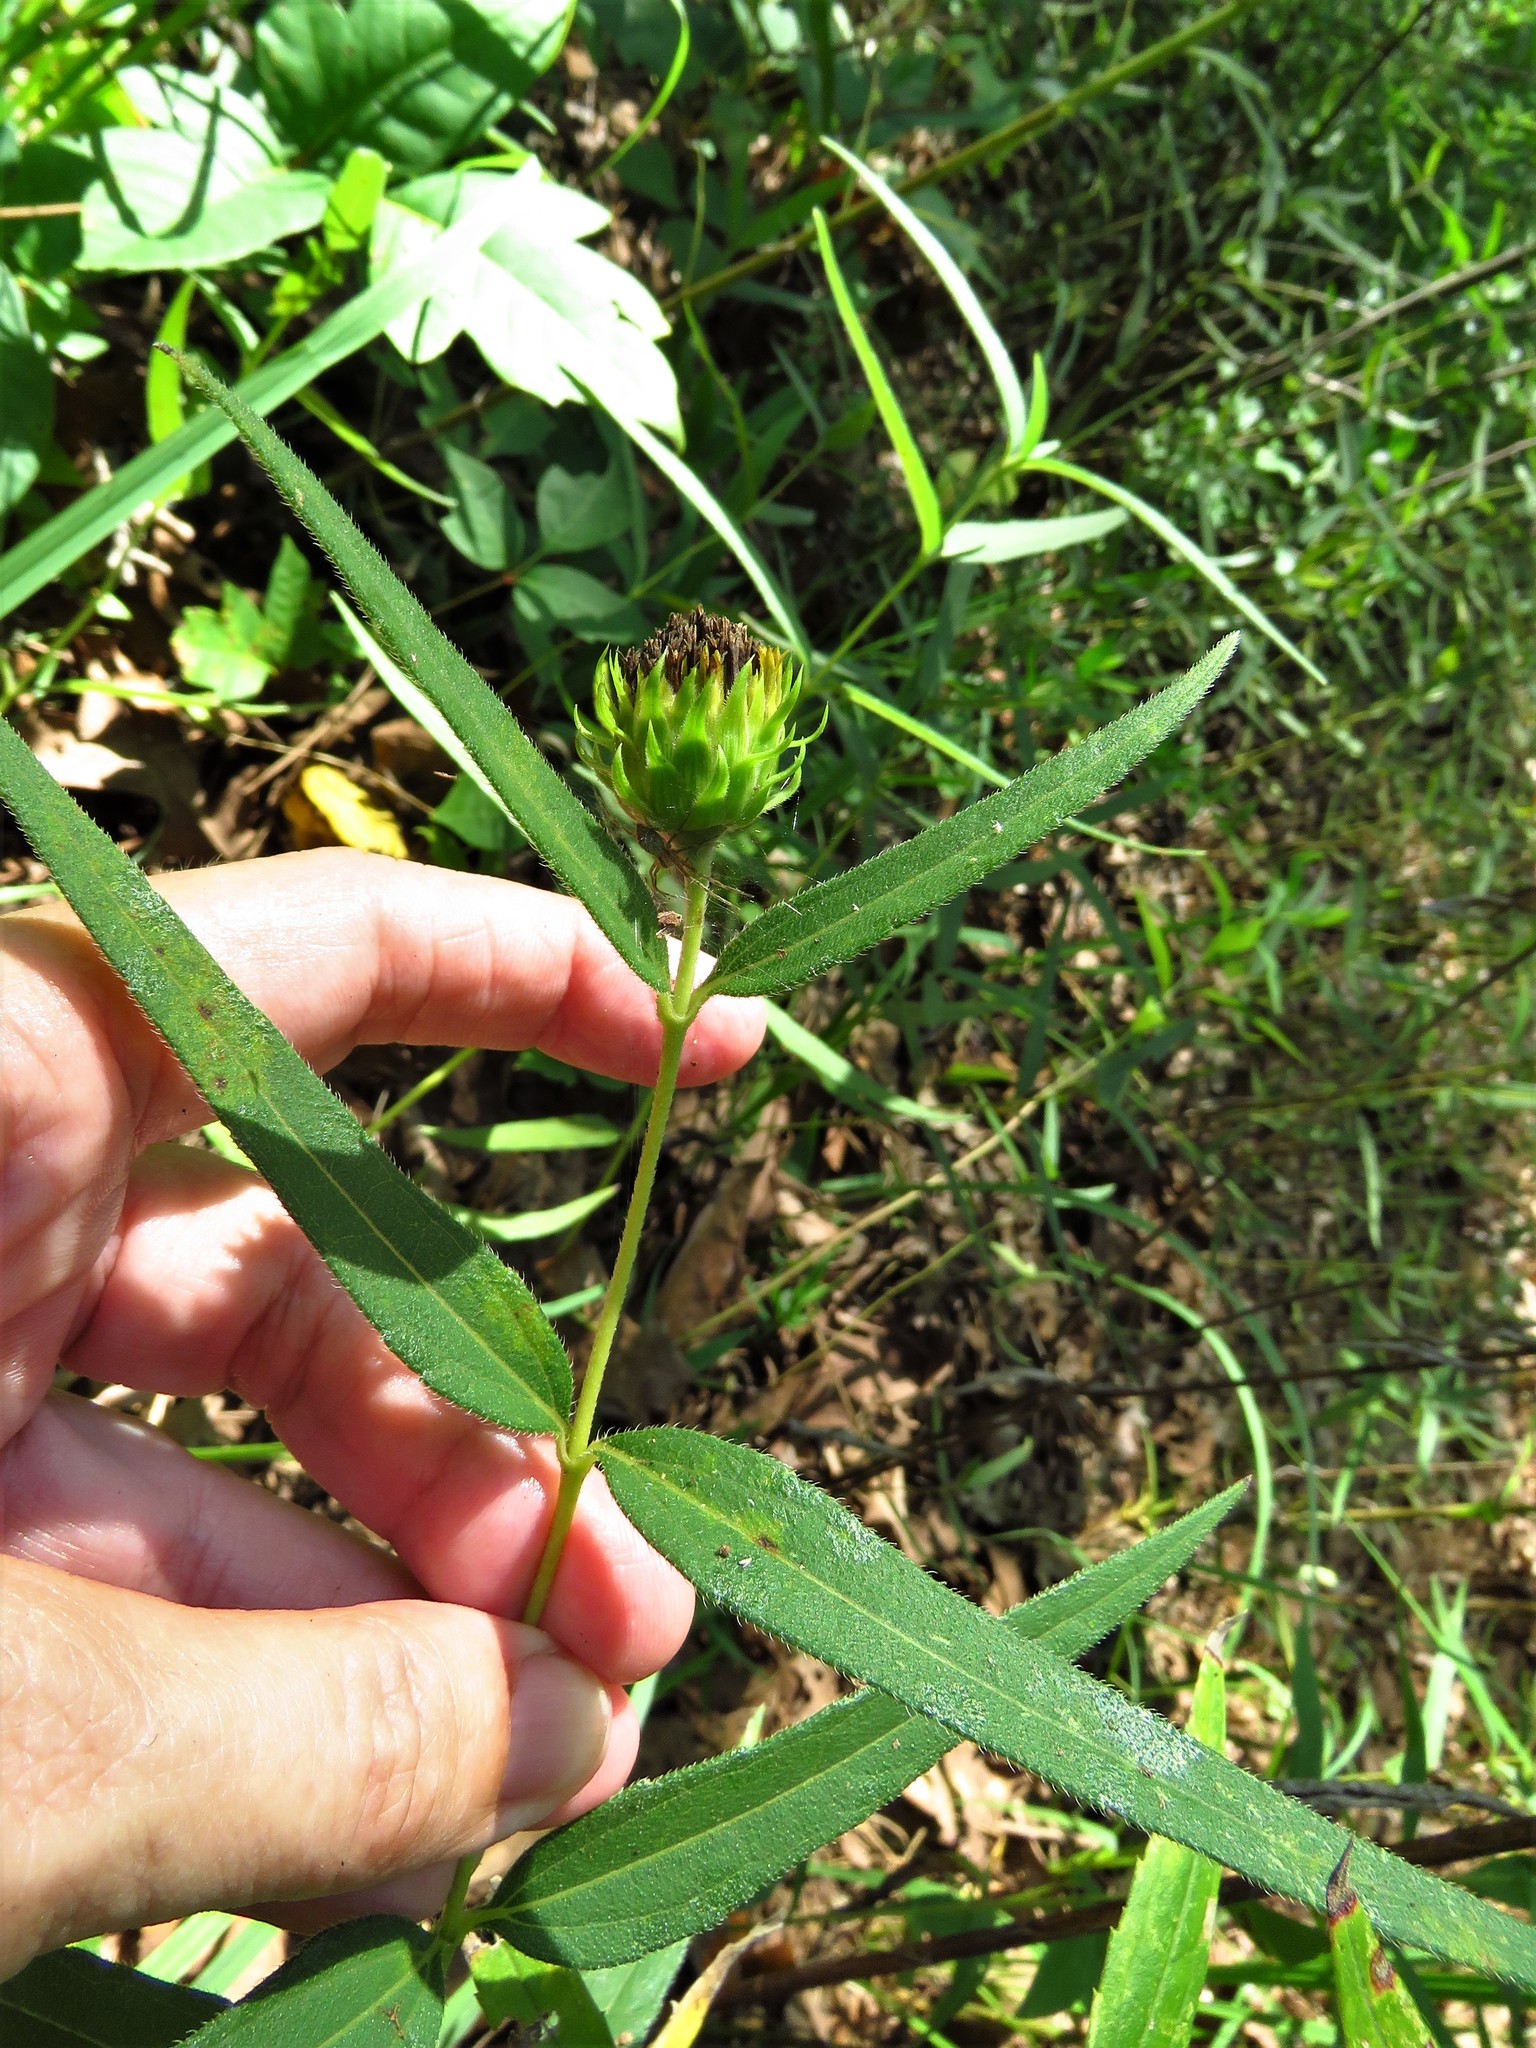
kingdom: Plantae
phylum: Tracheophyta
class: Magnoliopsida
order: Asterales
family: Asteraceae
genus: Helianthus
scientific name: Helianthus hirsutus
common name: Hairy sunflower
